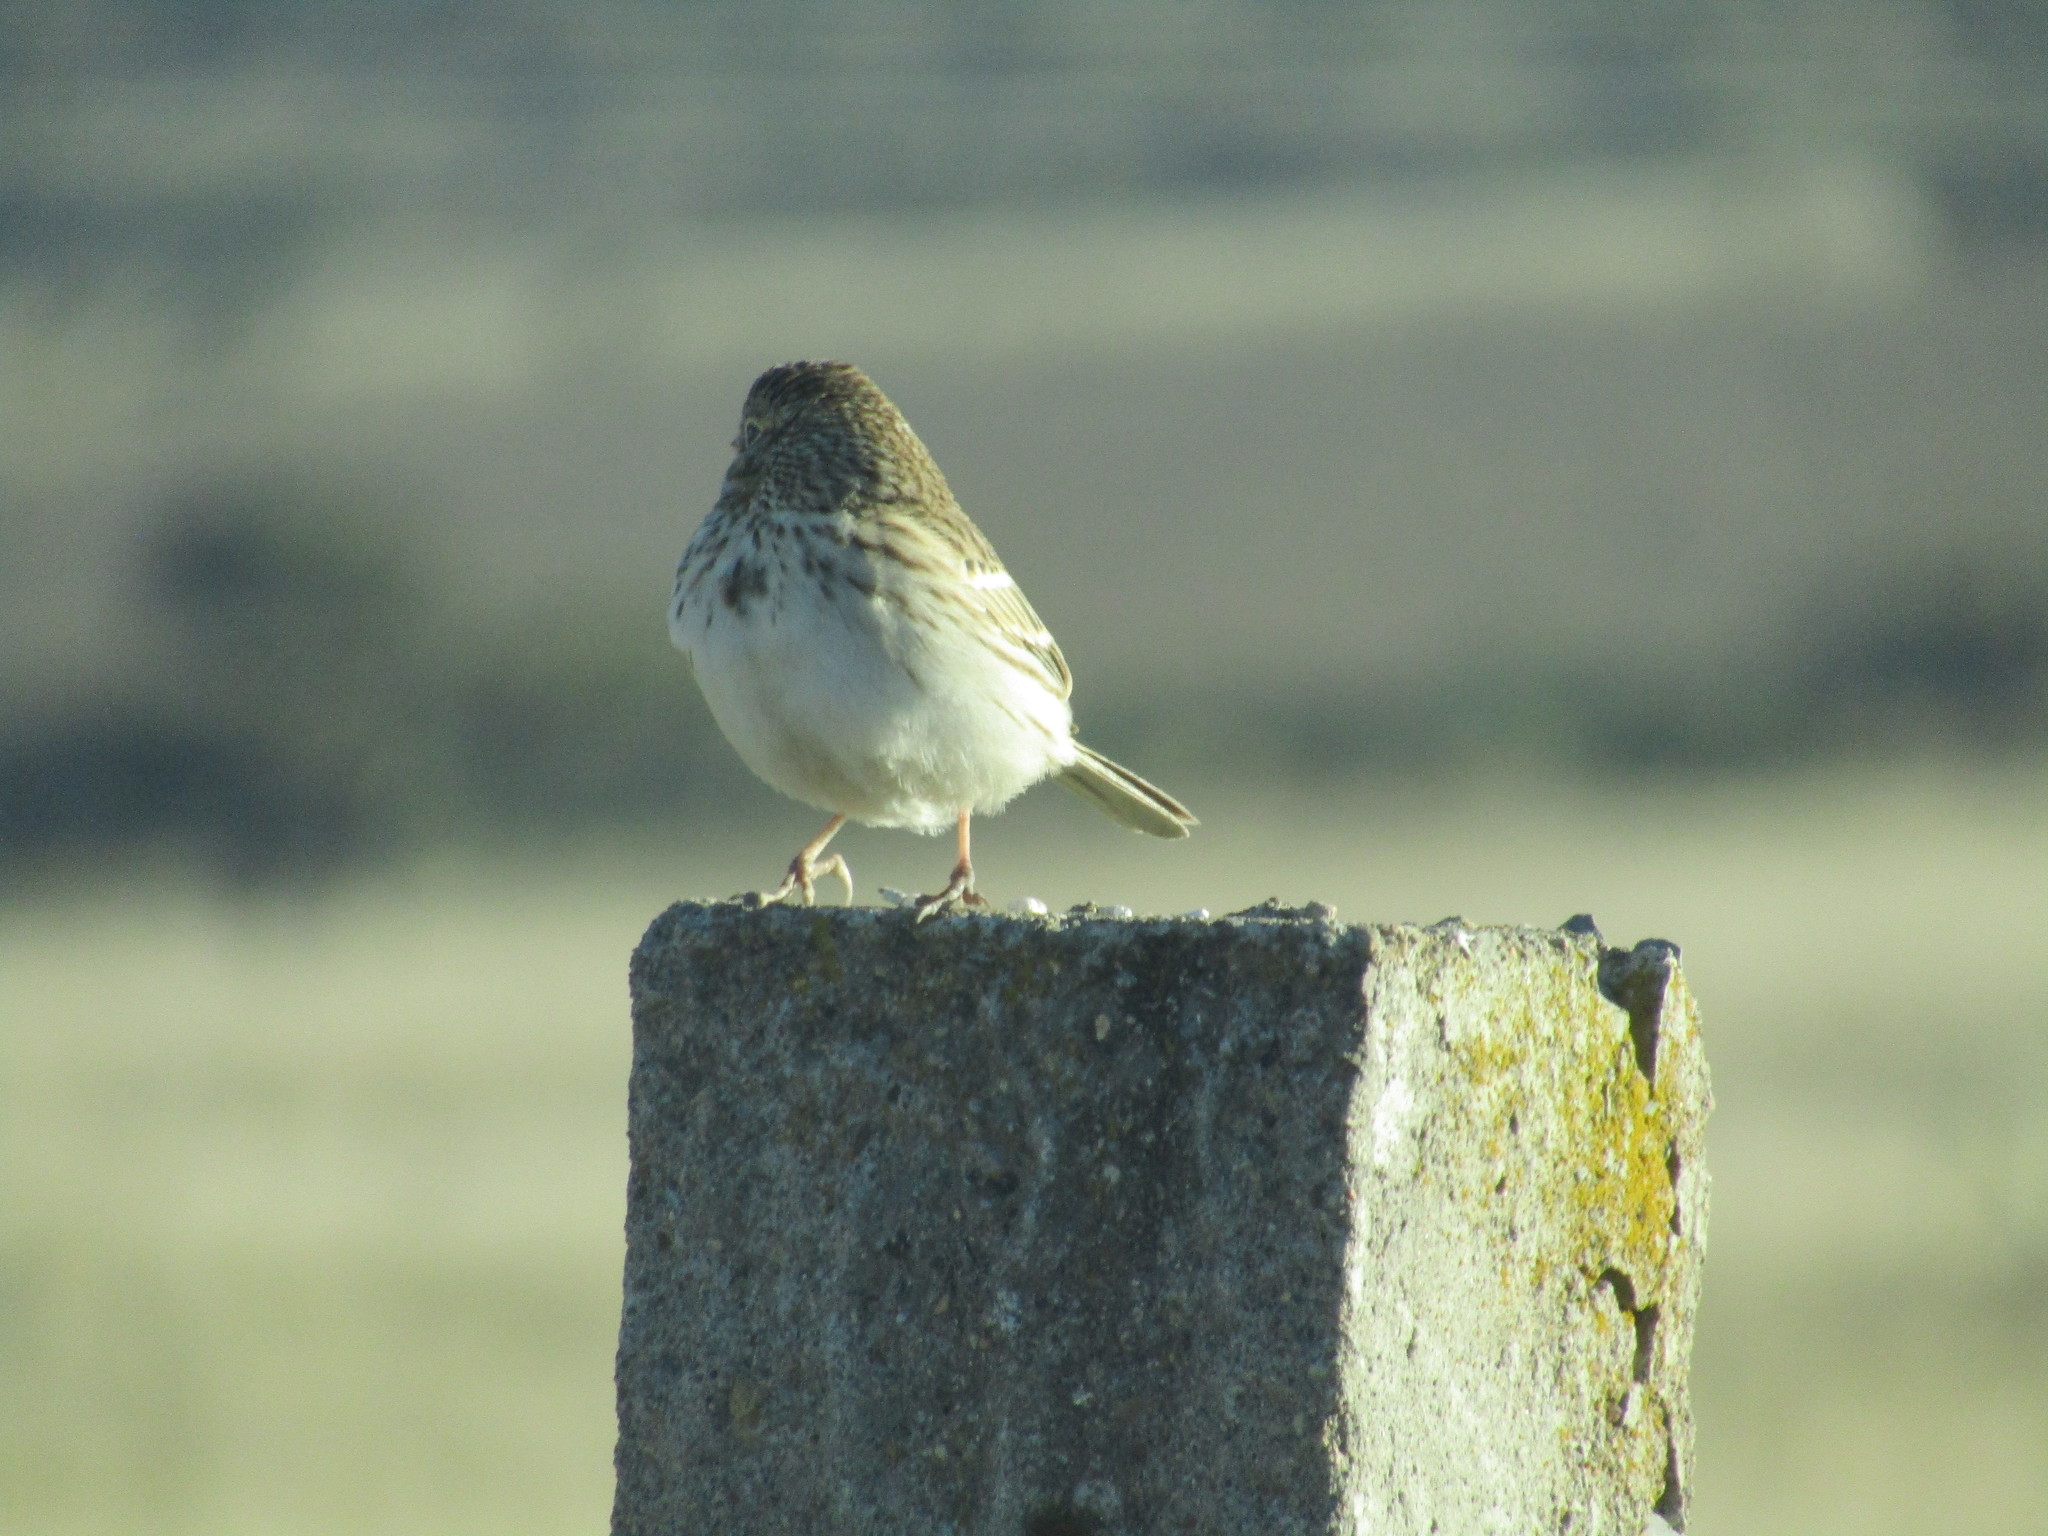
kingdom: Animalia
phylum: Chordata
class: Aves
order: Passeriformes
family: Passerellidae
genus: Pooecetes
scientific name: Pooecetes gramineus
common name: Vesper sparrow
